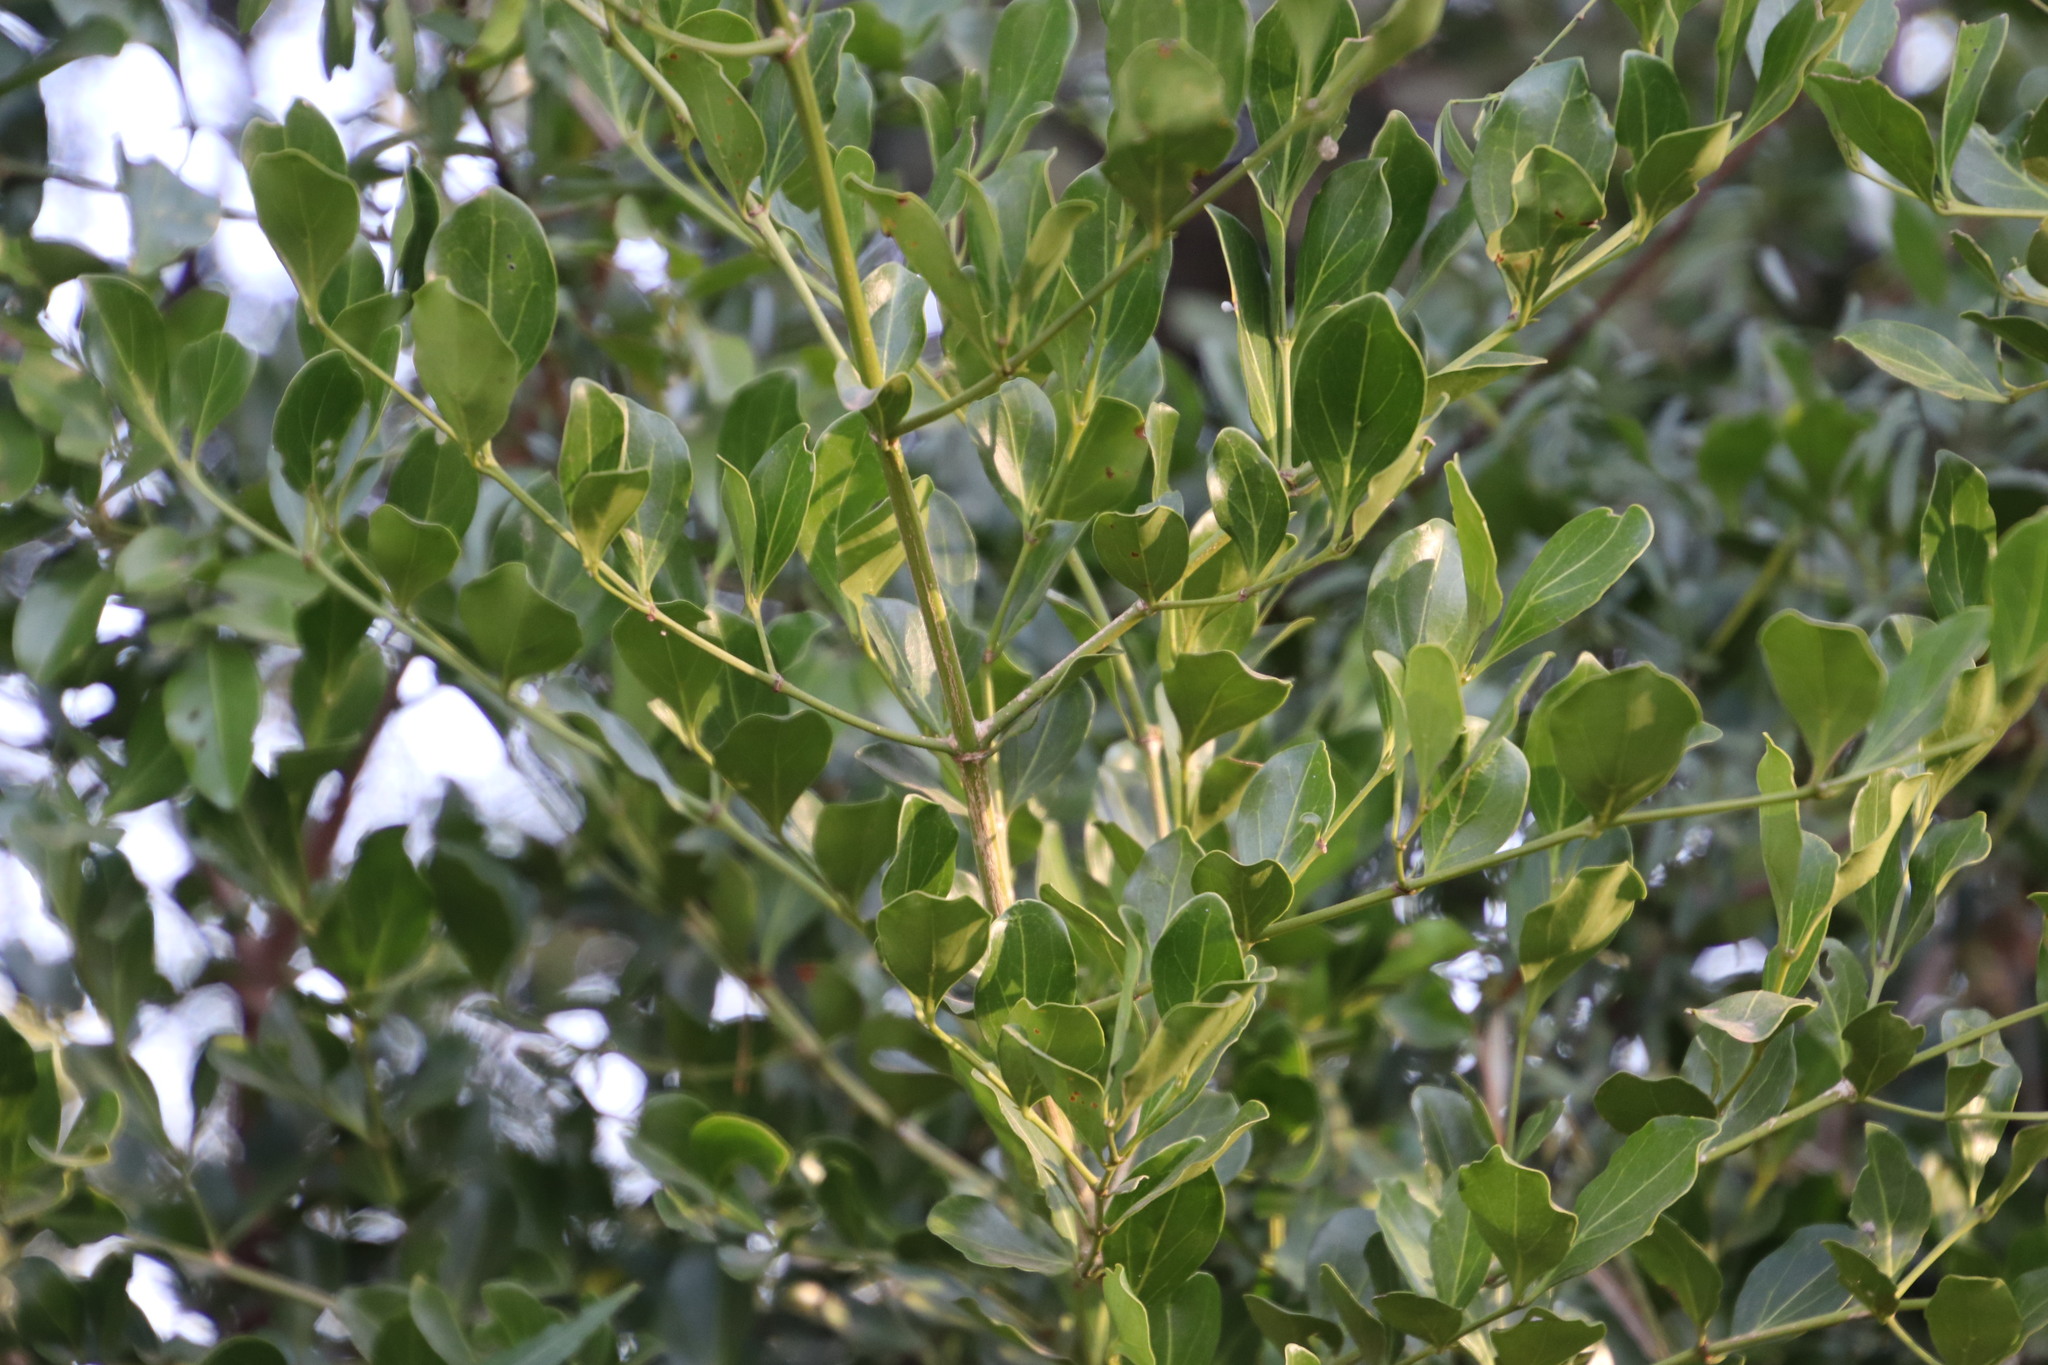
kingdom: Plantae
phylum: Tracheophyta
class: Magnoliopsida
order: Gentianales
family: Rubiaceae
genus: Psydrax
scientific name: Psydrax obovatus
